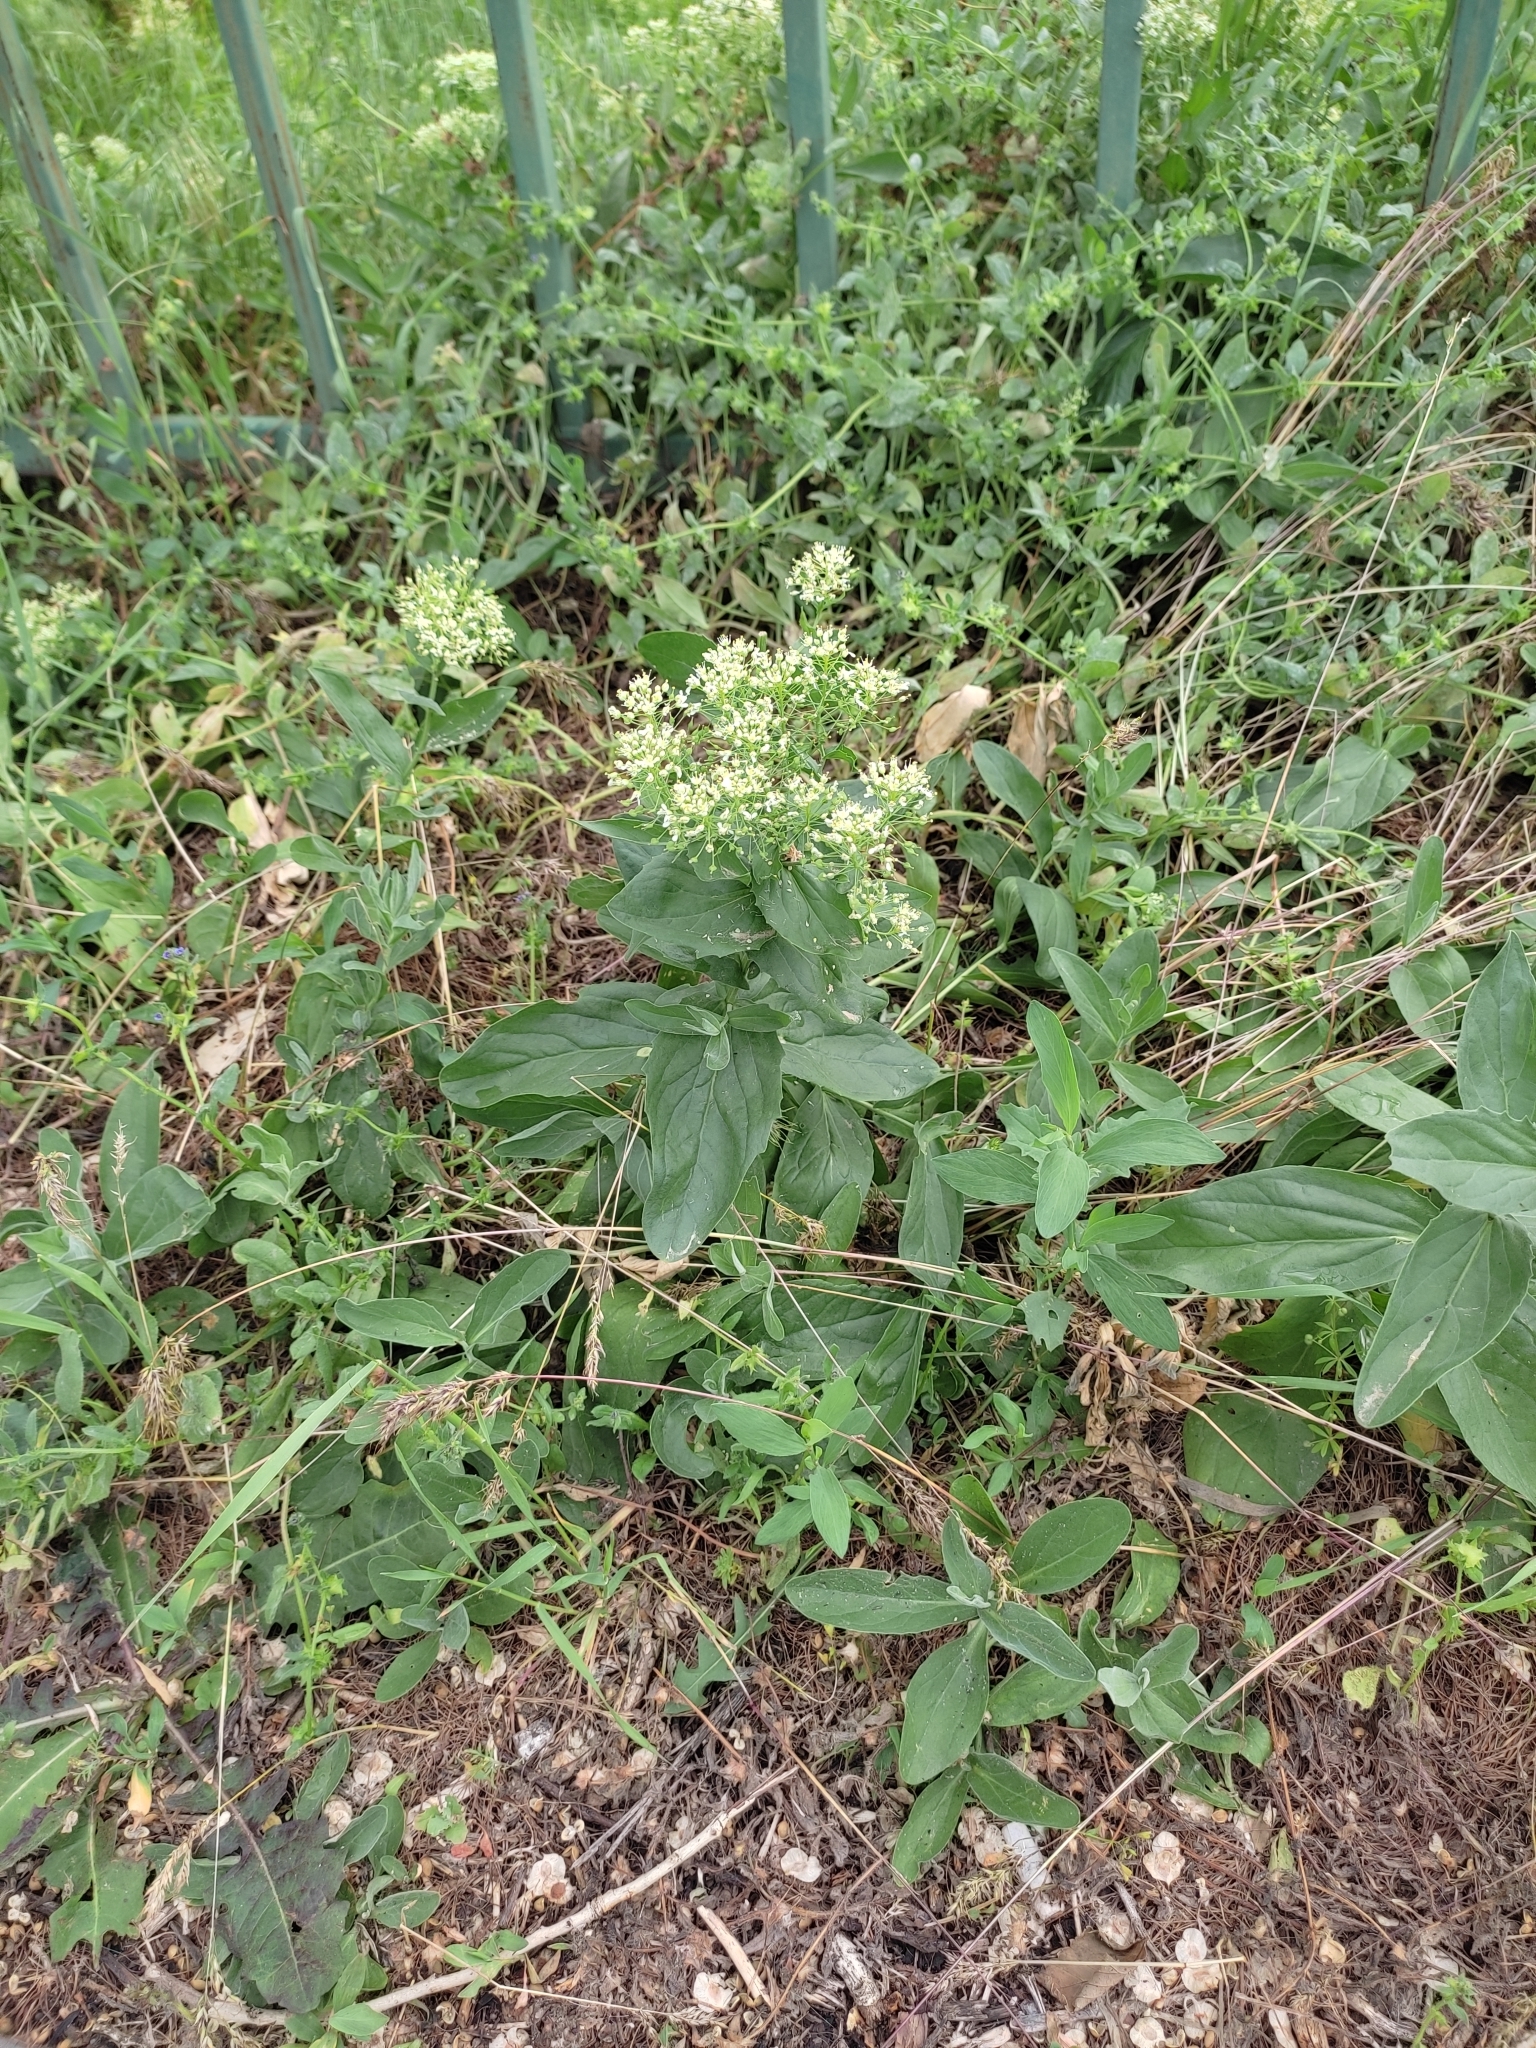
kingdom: Plantae
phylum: Tracheophyta
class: Magnoliopsida
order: Brassicales
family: Brassicaceae
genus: Lepidium
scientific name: Lepidium draba
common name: Hoary cress
